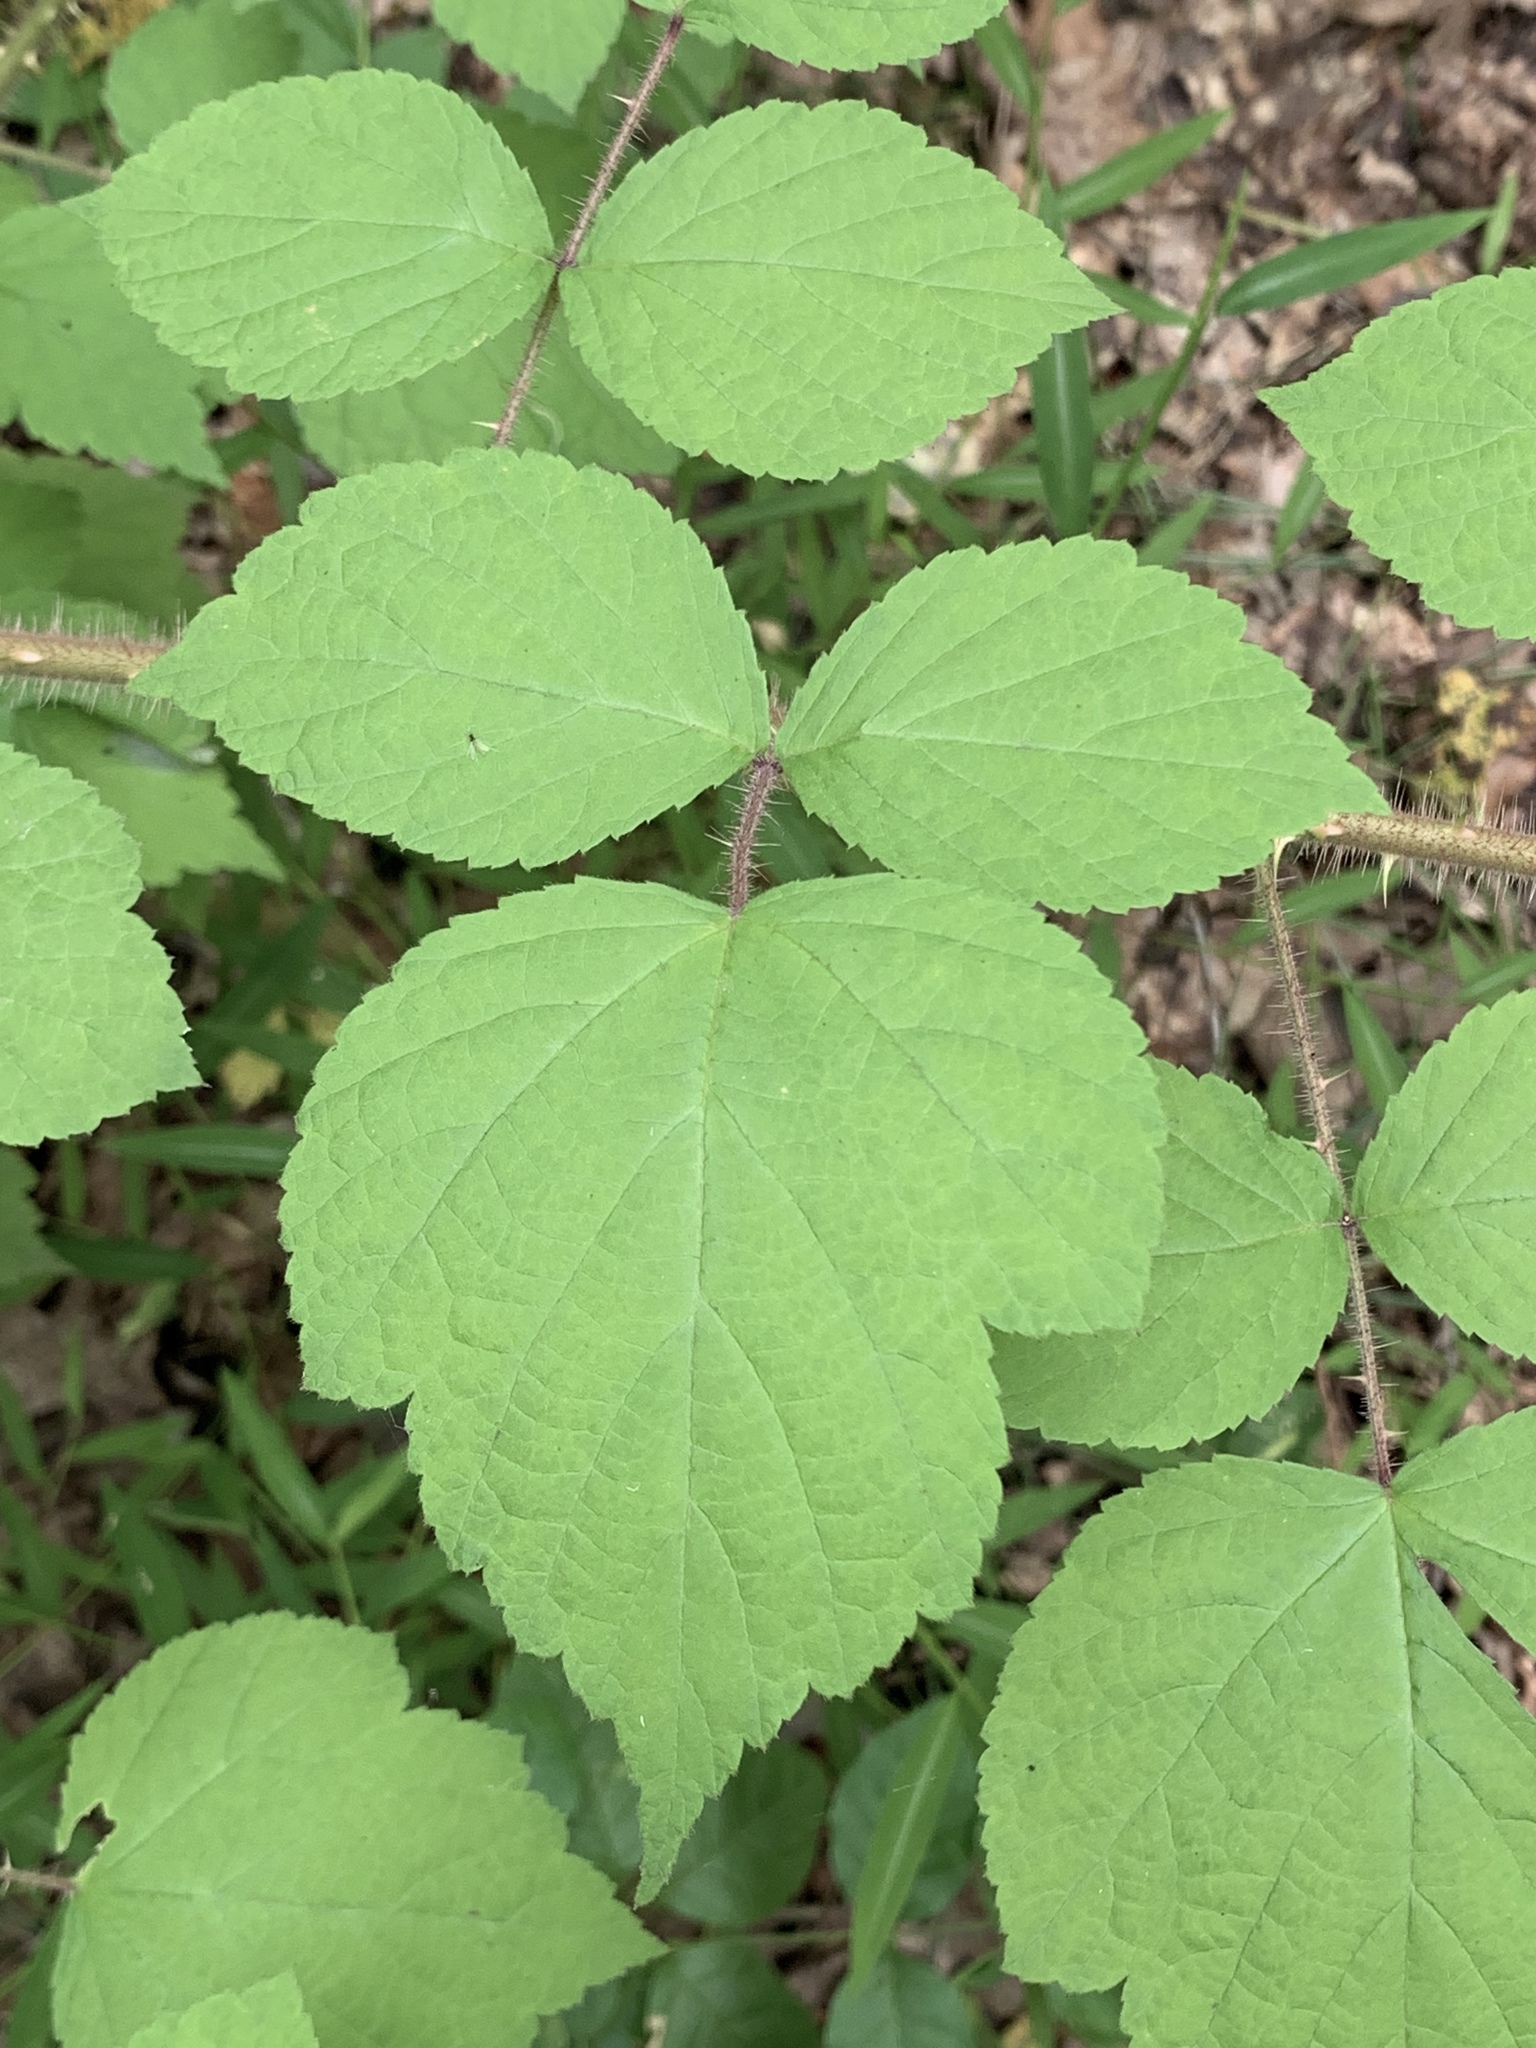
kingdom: Plantae
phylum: Tracheophyta
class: Magnoliopsida
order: Rosales
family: Rosaceae
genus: Rubus
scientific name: Rubus phoenicolasius
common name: Japanese wineberry
